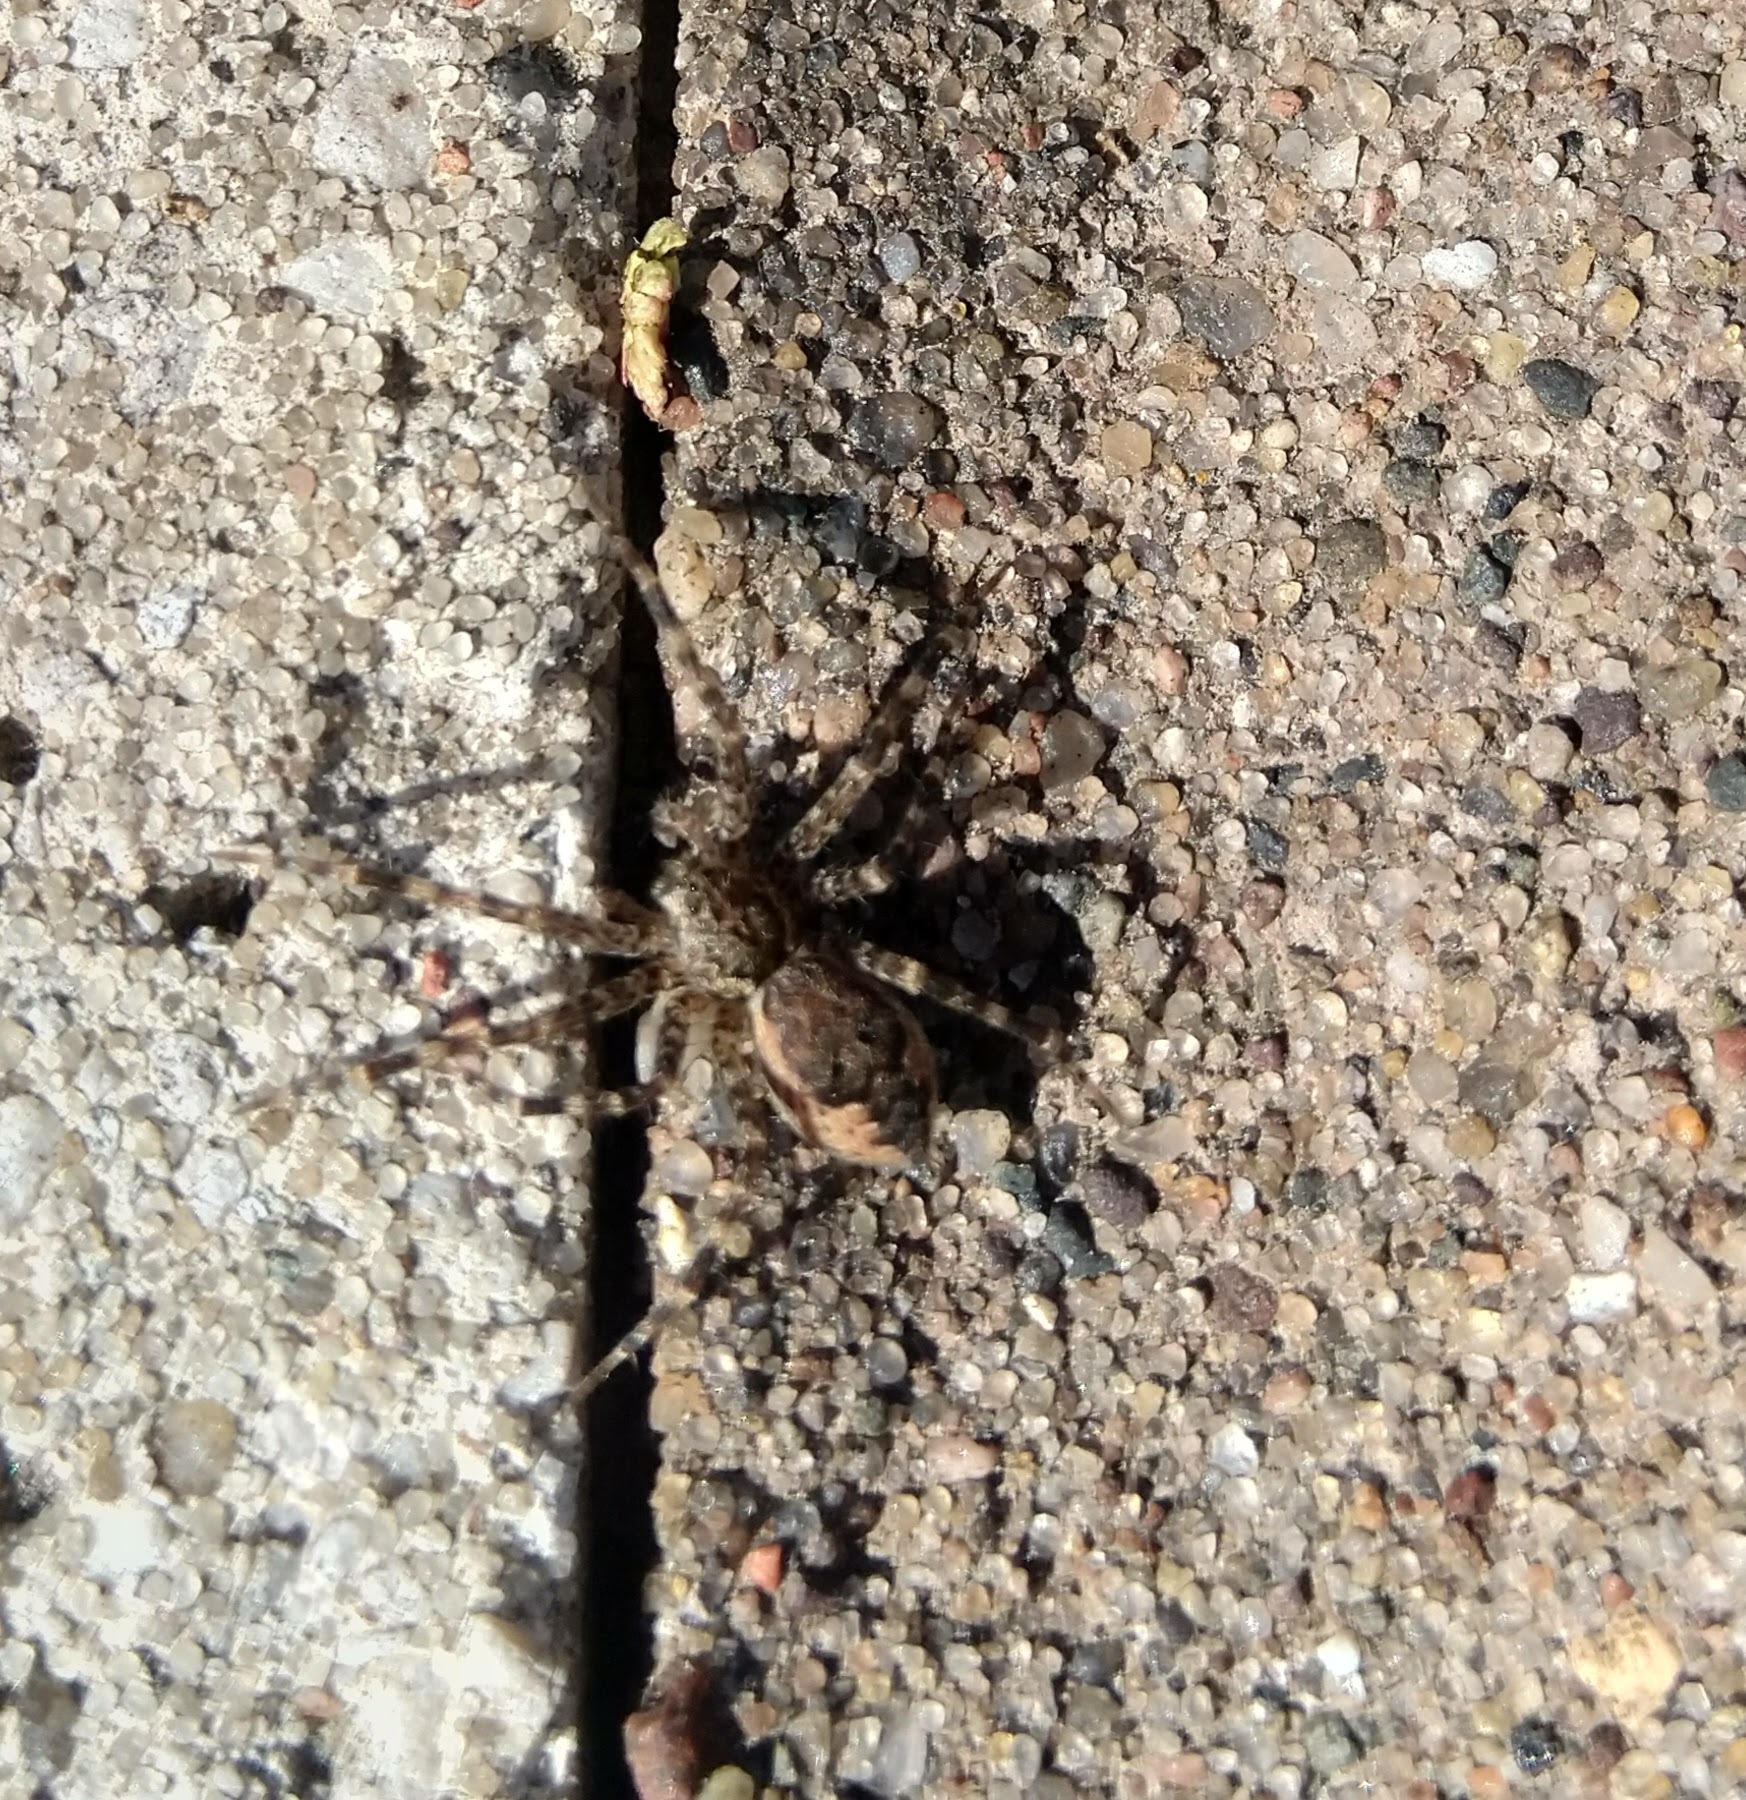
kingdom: Animalia
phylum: Arthropoda
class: Arachnida
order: Araneae
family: Pisauridae
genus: Dolomedes
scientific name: Dolomedes tenebrosus
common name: Dark fishing spider
